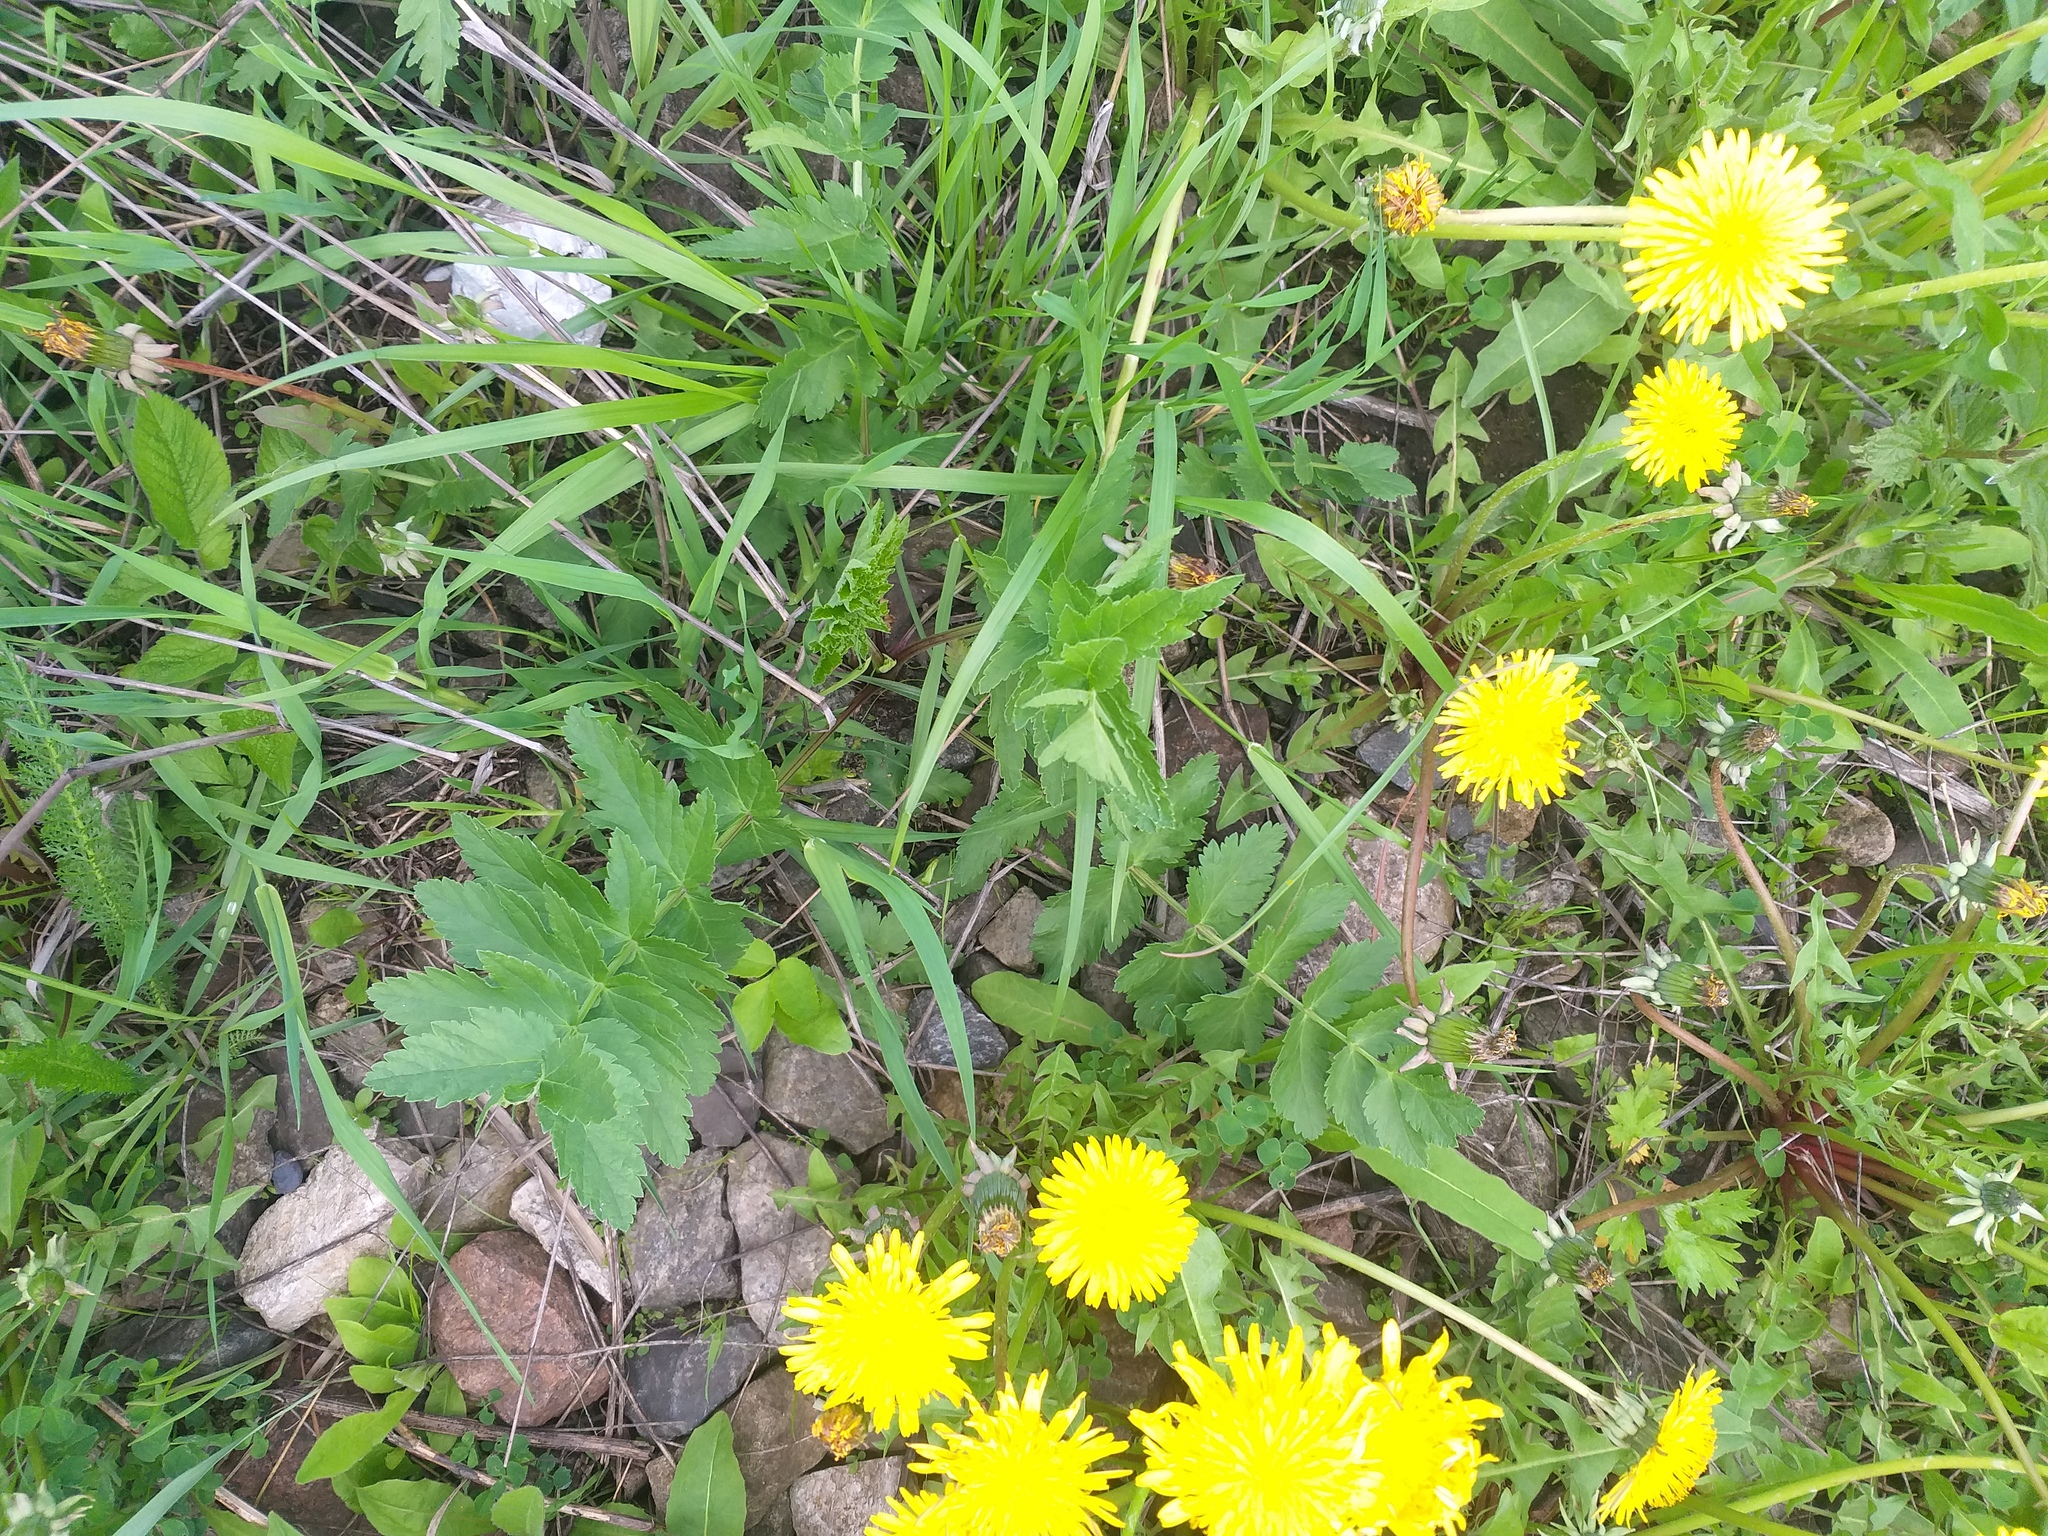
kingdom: Plantae
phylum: Tracheophyta
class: Magnoliopsida
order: Apiales
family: Apiaceae
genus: Pastinaca
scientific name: Pastinaca sativa
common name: Wild parsnip
